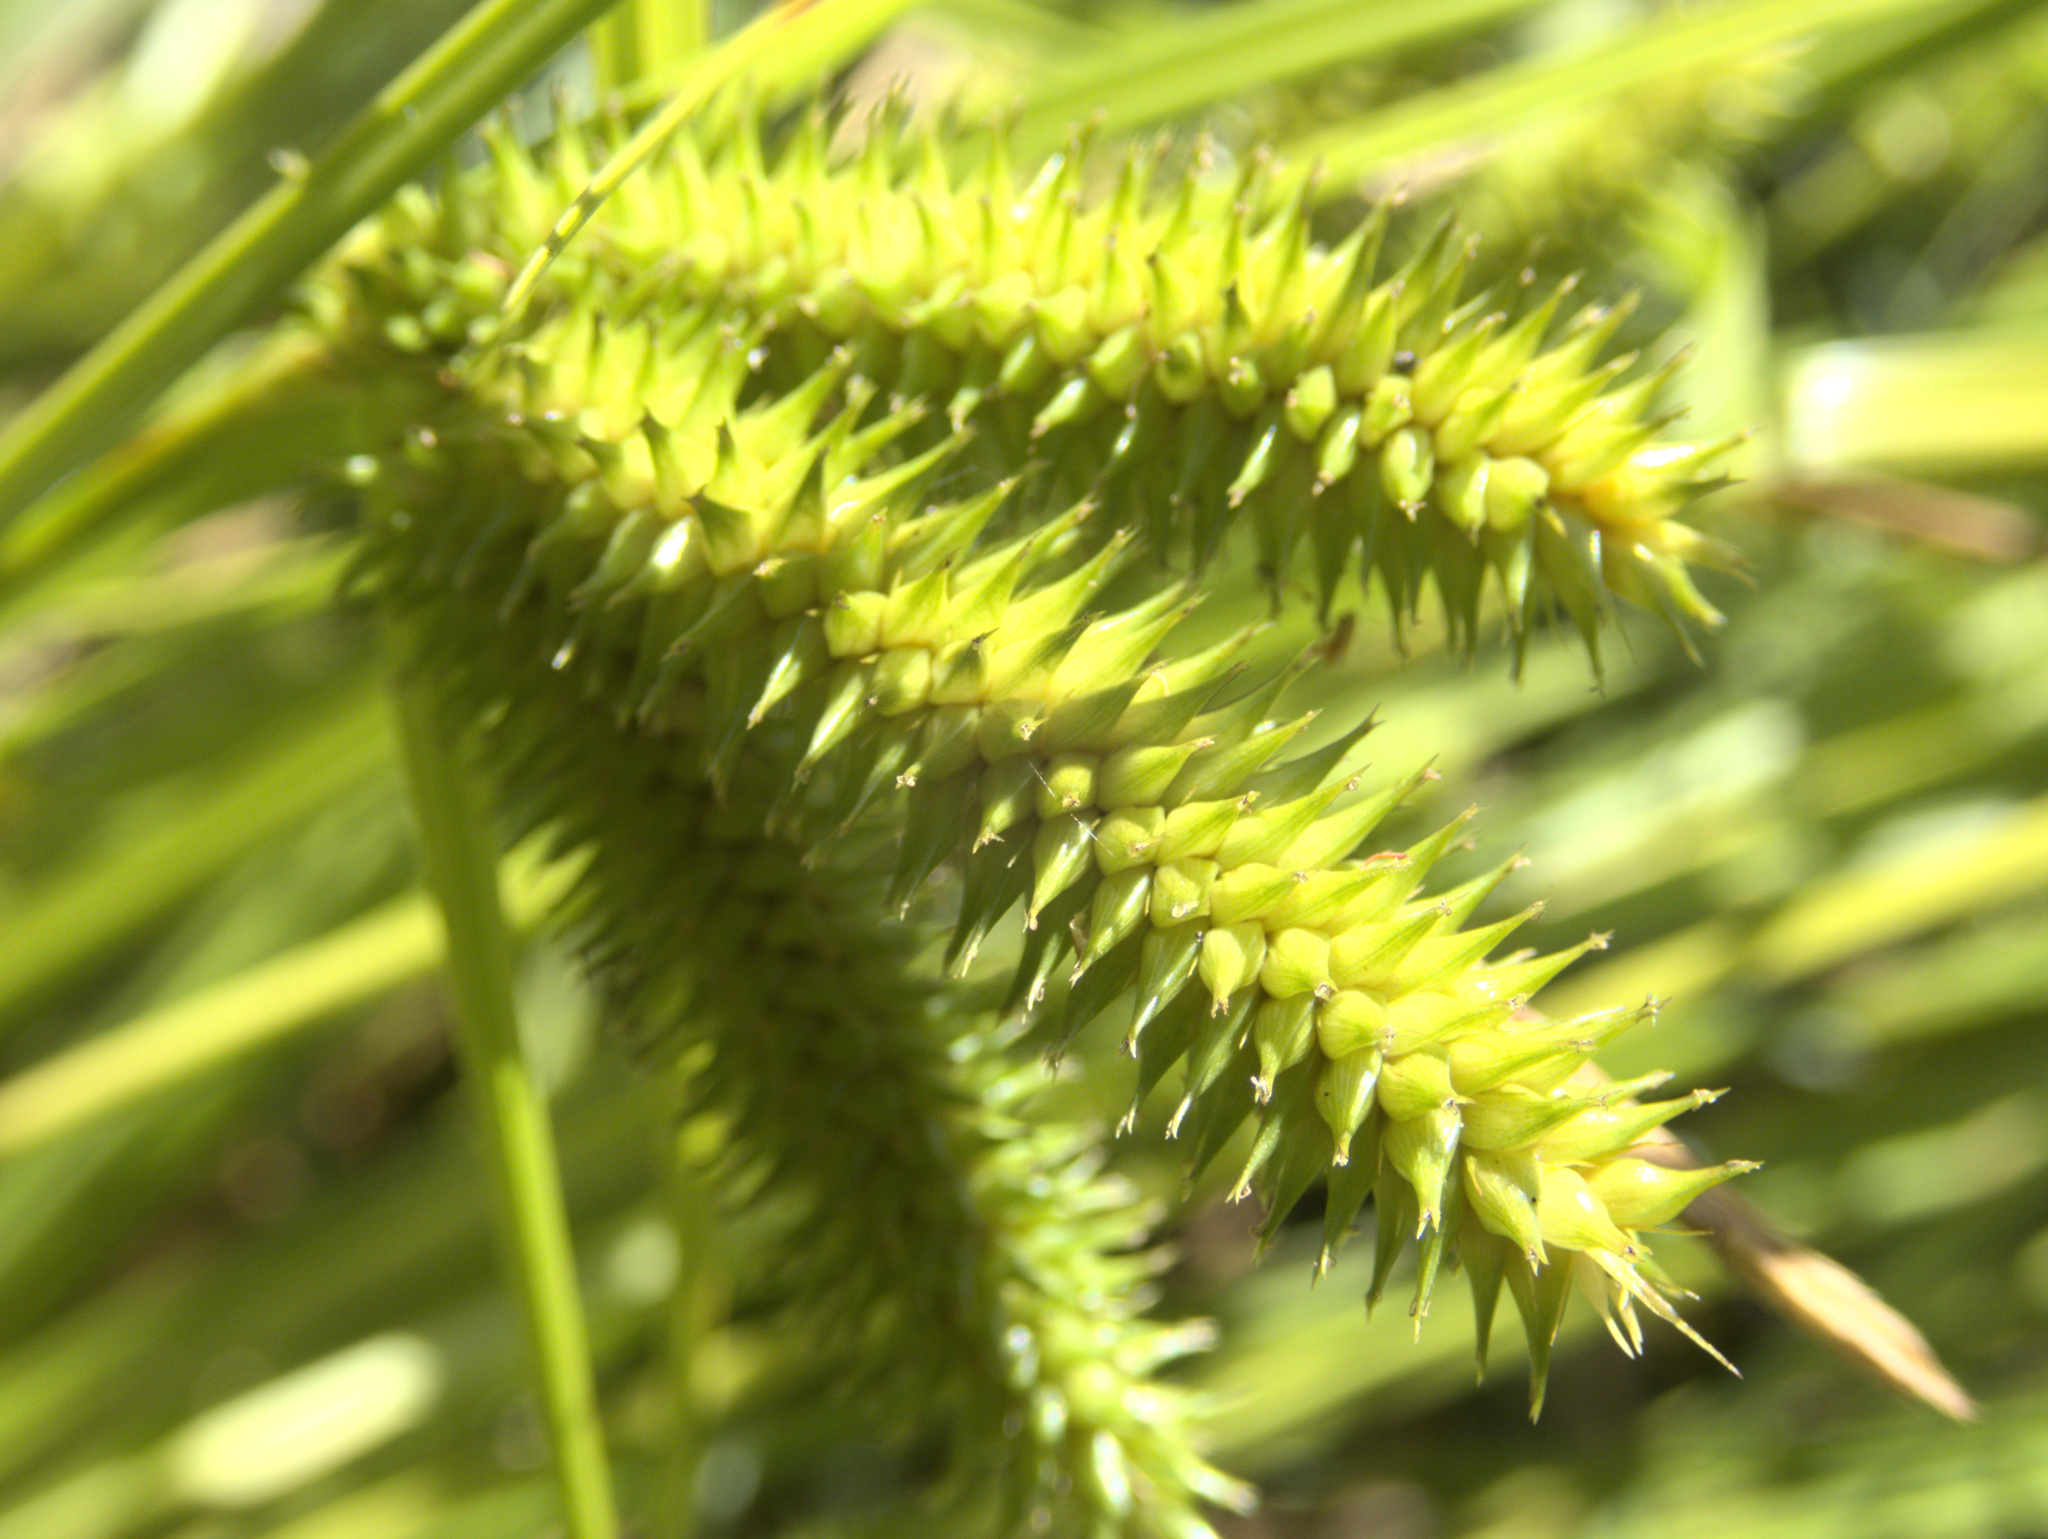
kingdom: Plantae
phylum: Tracheophyta
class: Liliopsida
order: Poales
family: Cyperaceae
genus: Carex
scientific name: Carex maorica
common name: Maori sedge
